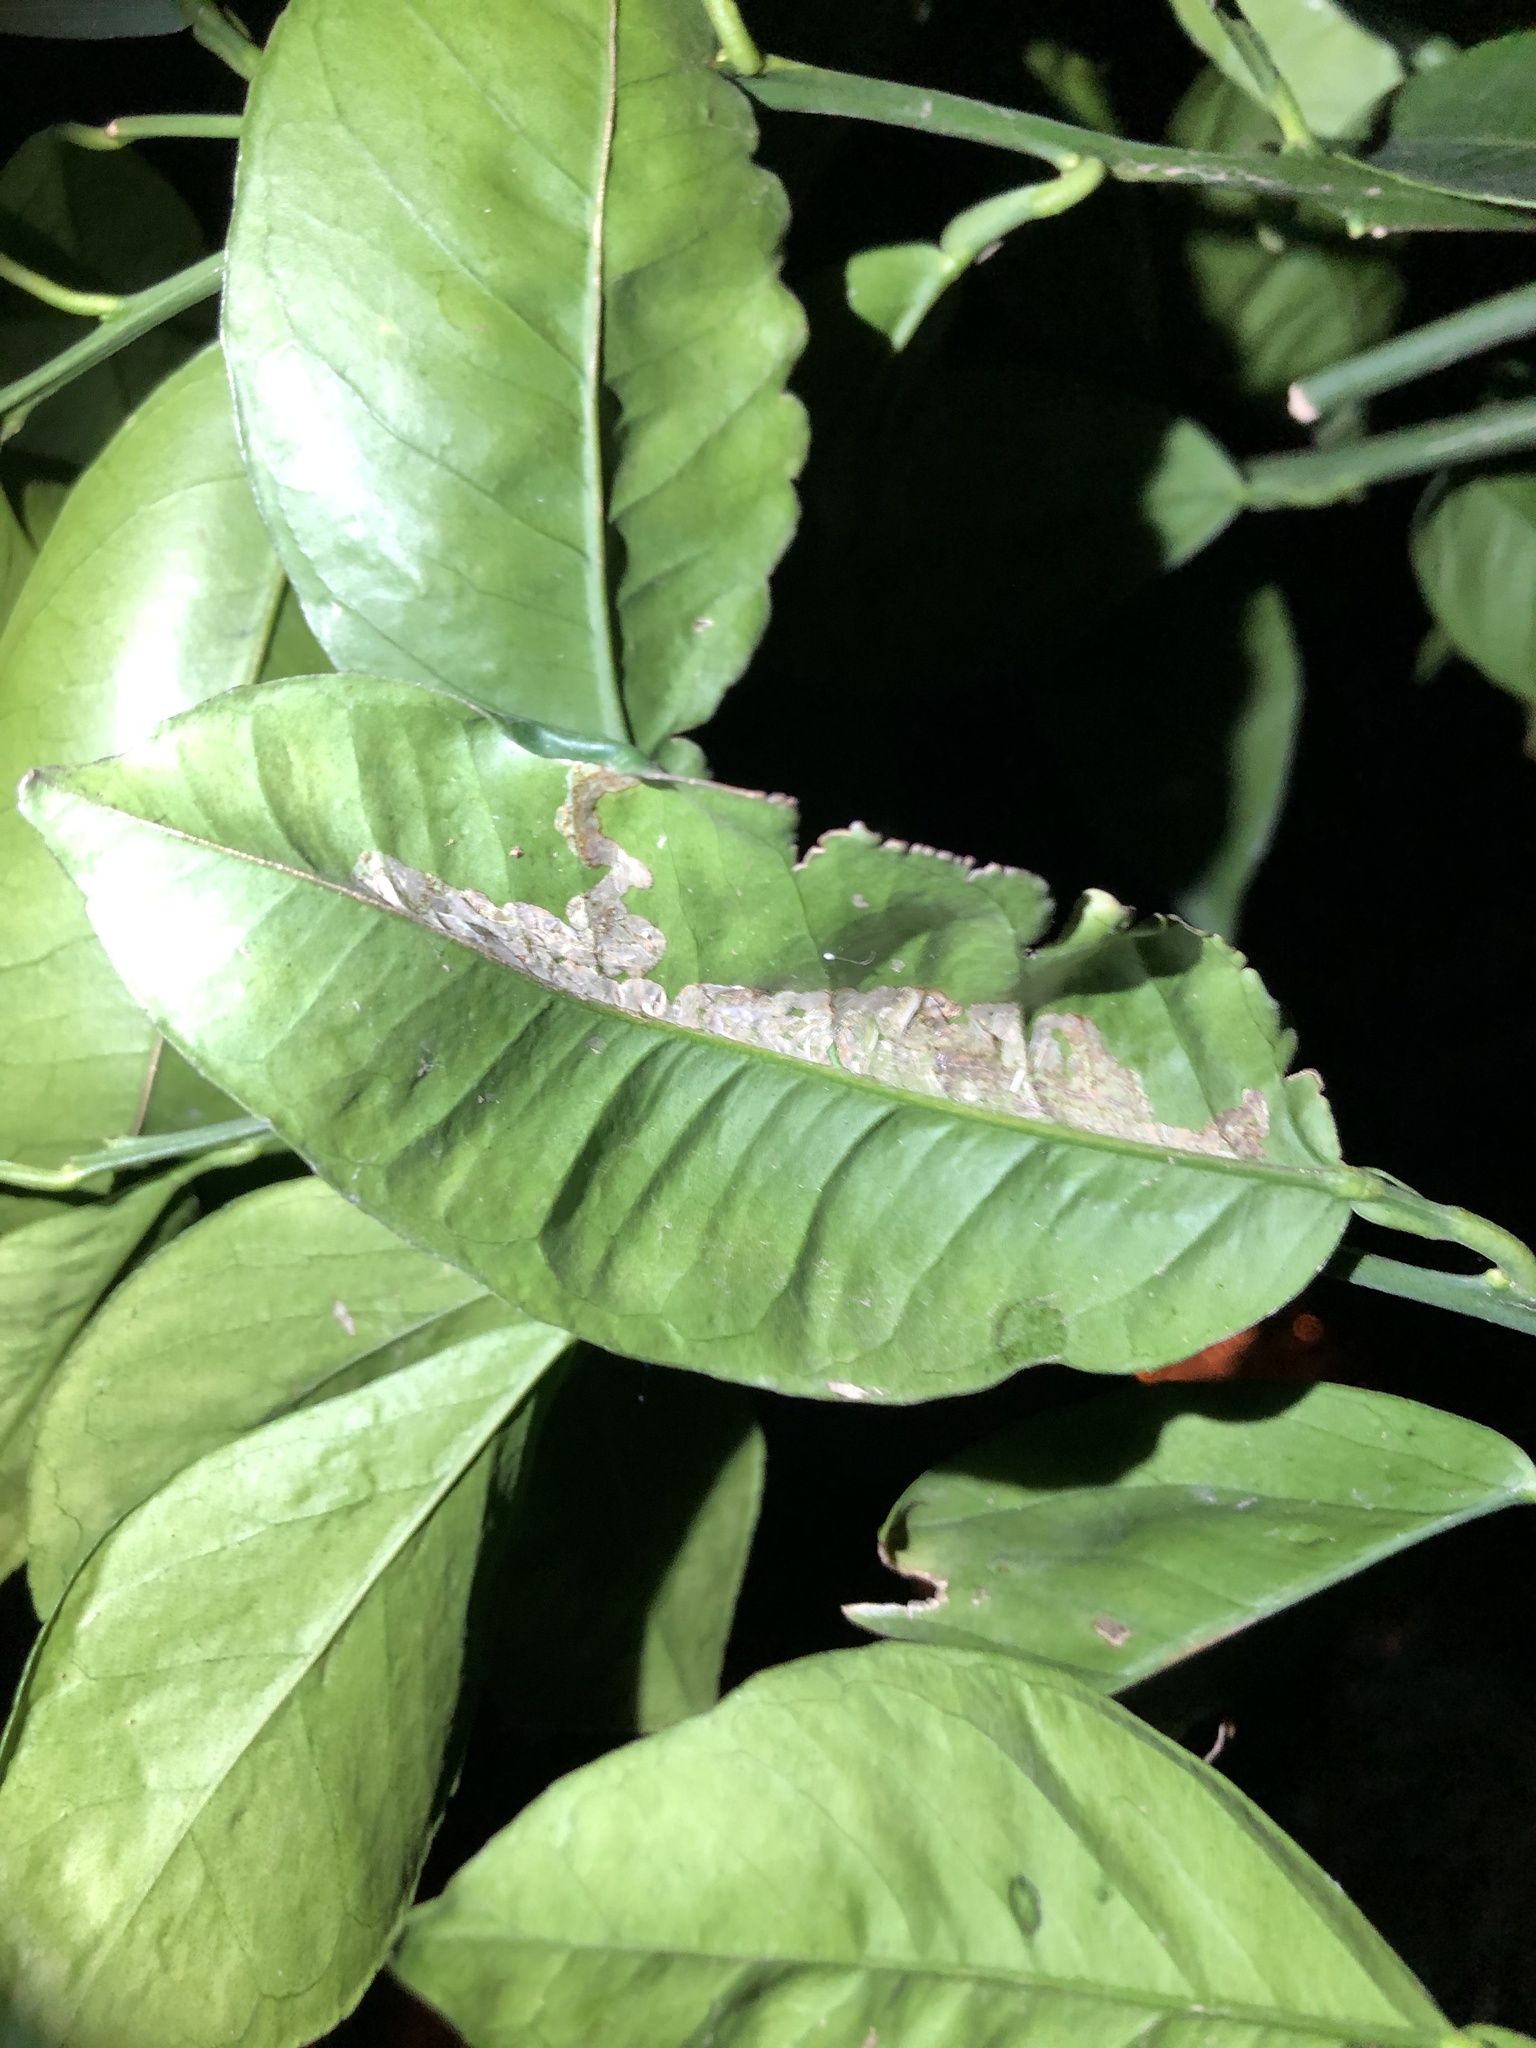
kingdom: Animalia
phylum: Arthropoda
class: Insecta
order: Lepidoptera
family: Gracillariidae
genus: Phyllocnistis
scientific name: Phyllocnistis citrella
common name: Citrus leafminer
